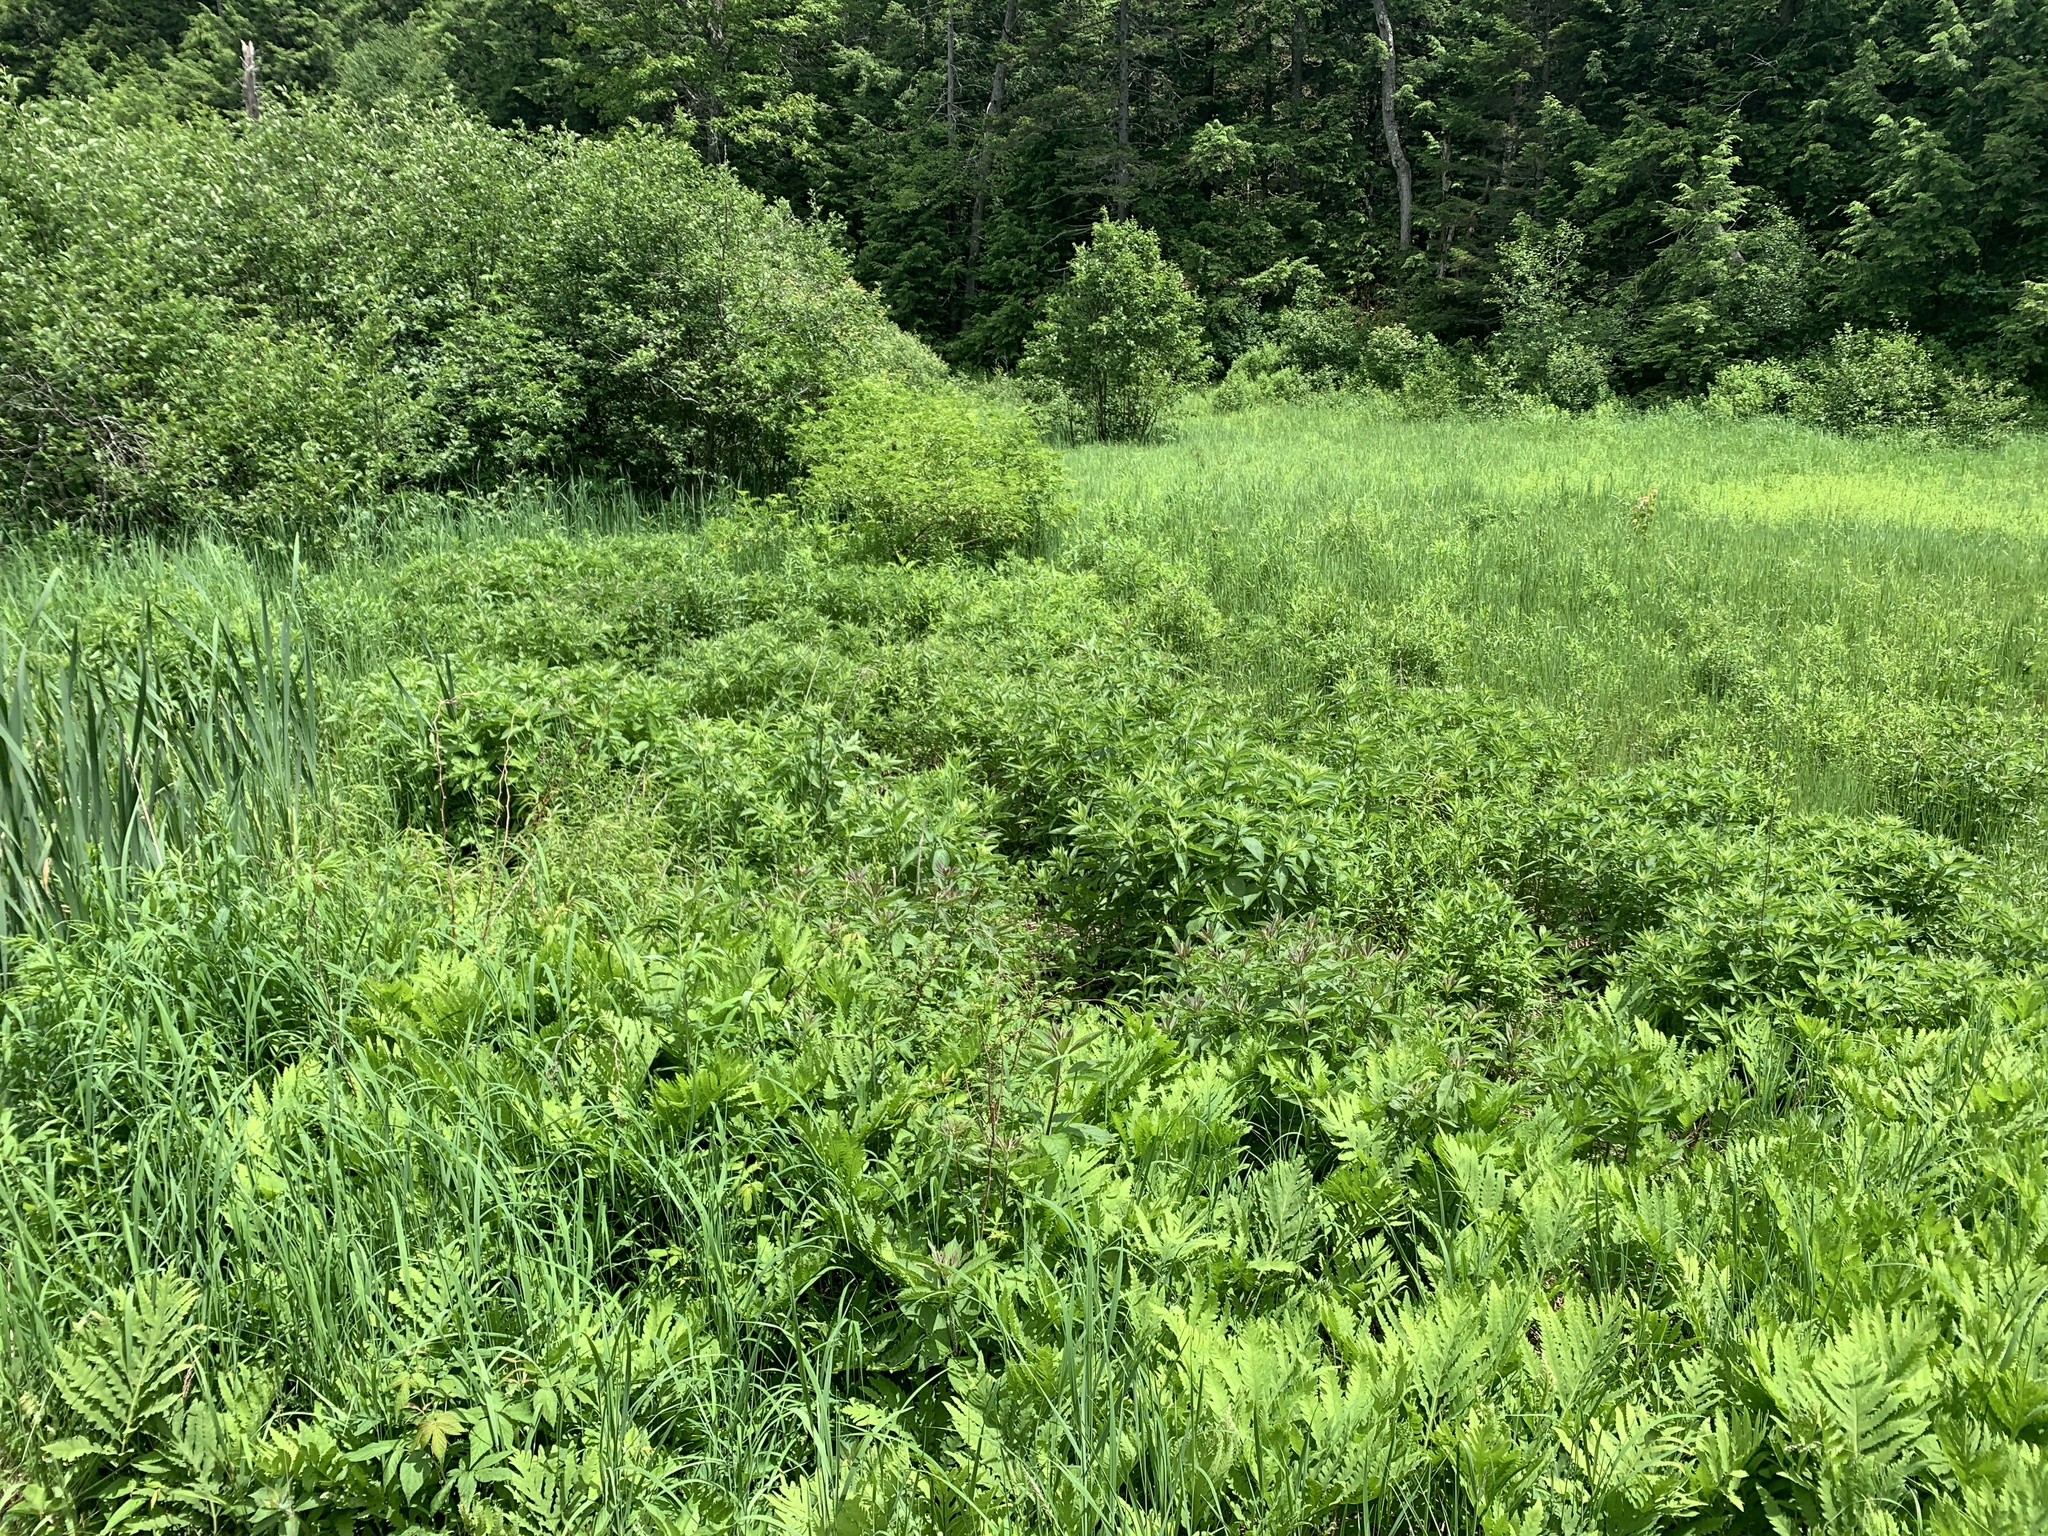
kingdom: Plantae
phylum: Tracheophyta
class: Polypodiopsida
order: Polypodiales
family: Onocleaceae
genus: Onoclea
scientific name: Onoclea sensibilis
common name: Sensitive fern
